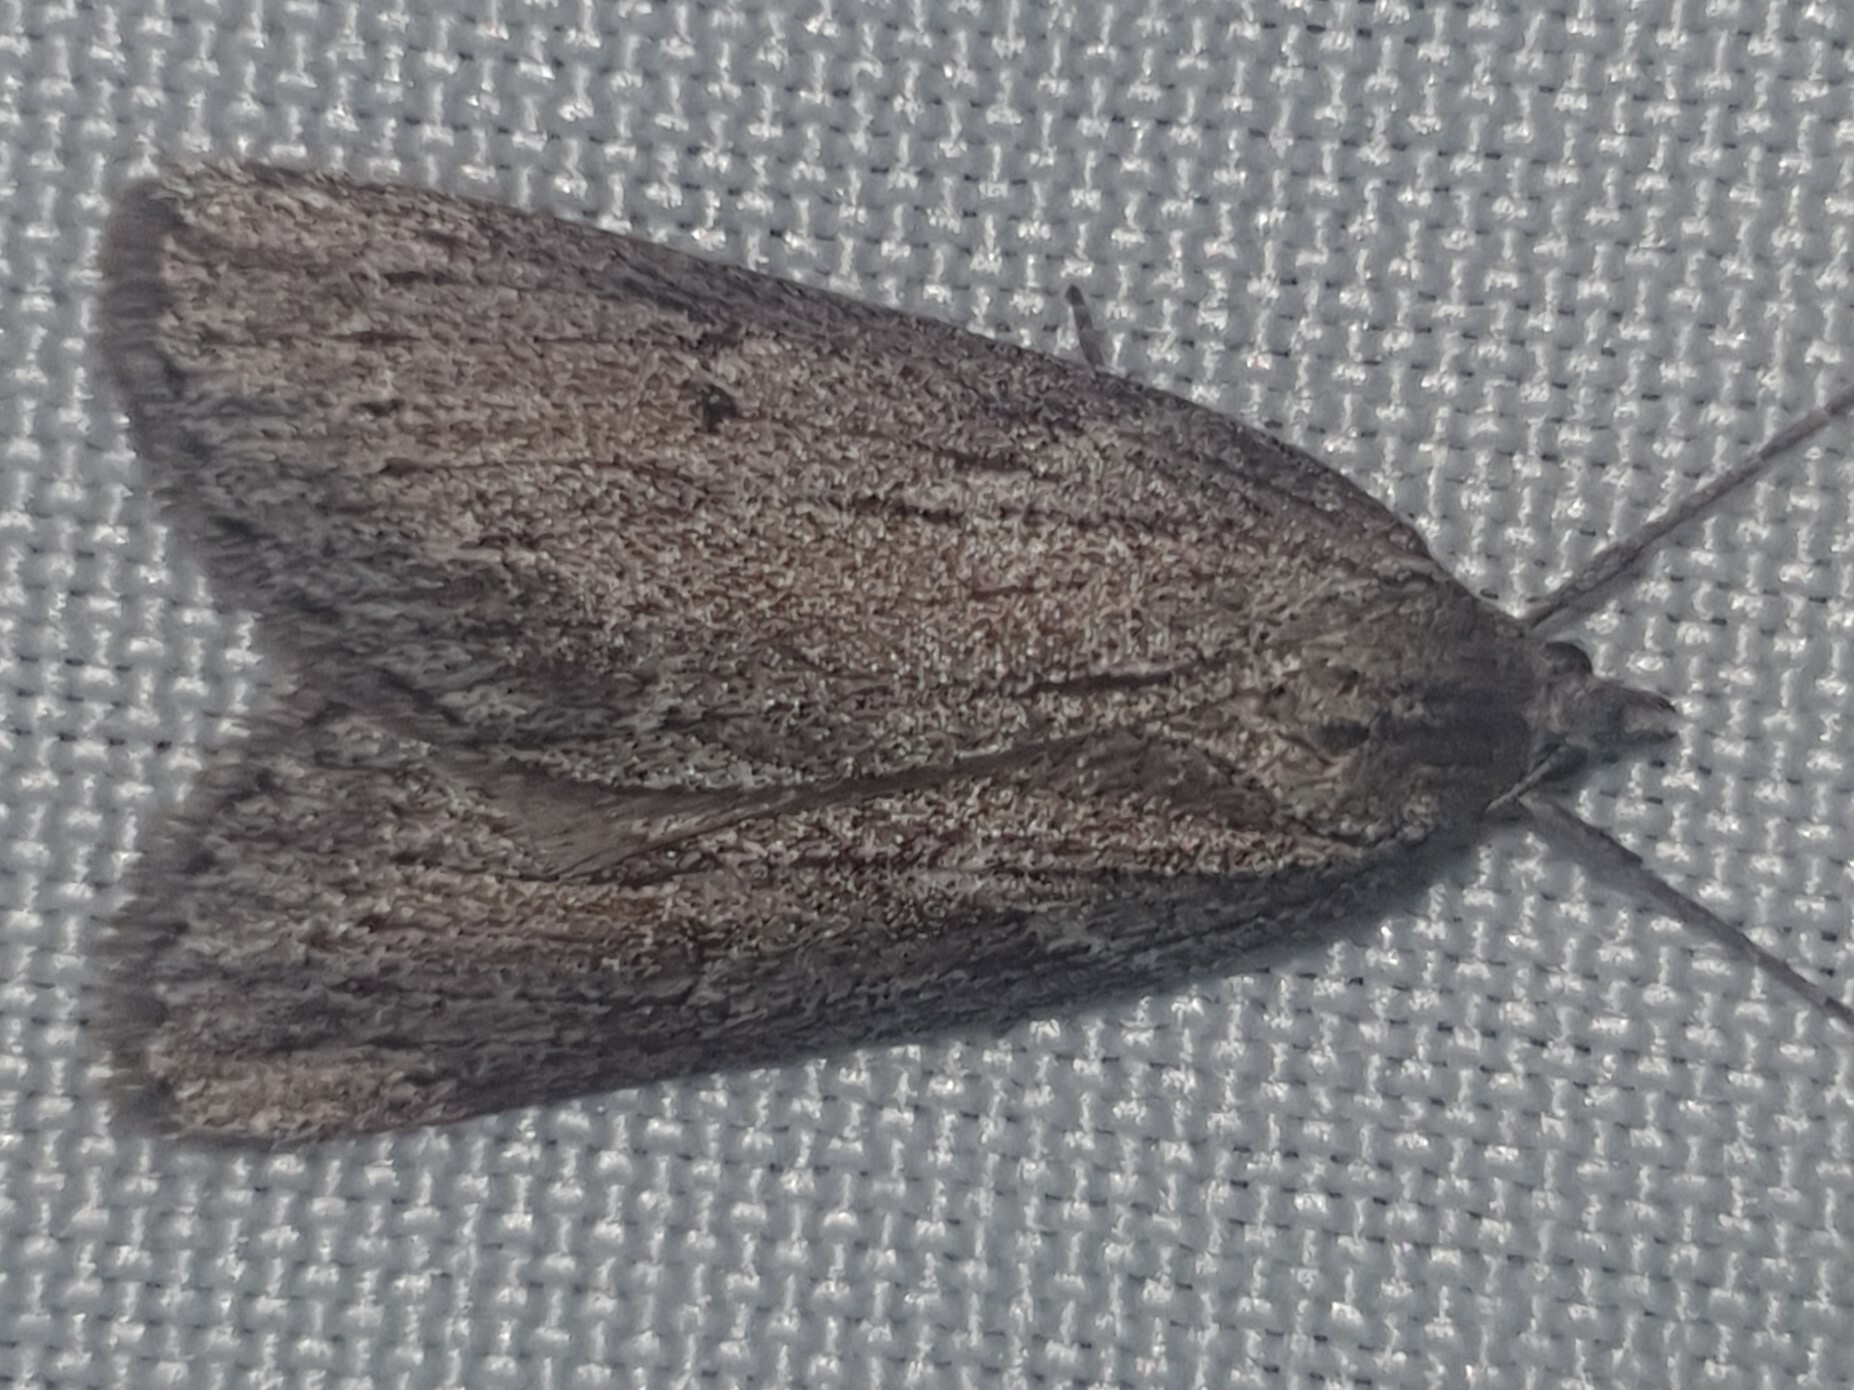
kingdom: Animalia
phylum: Arthropoda
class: Insecta
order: Lepidoptera
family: Geometridae
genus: Pachycnemia
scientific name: Pachycnemia hippocastanaria
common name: Horse chestnut
